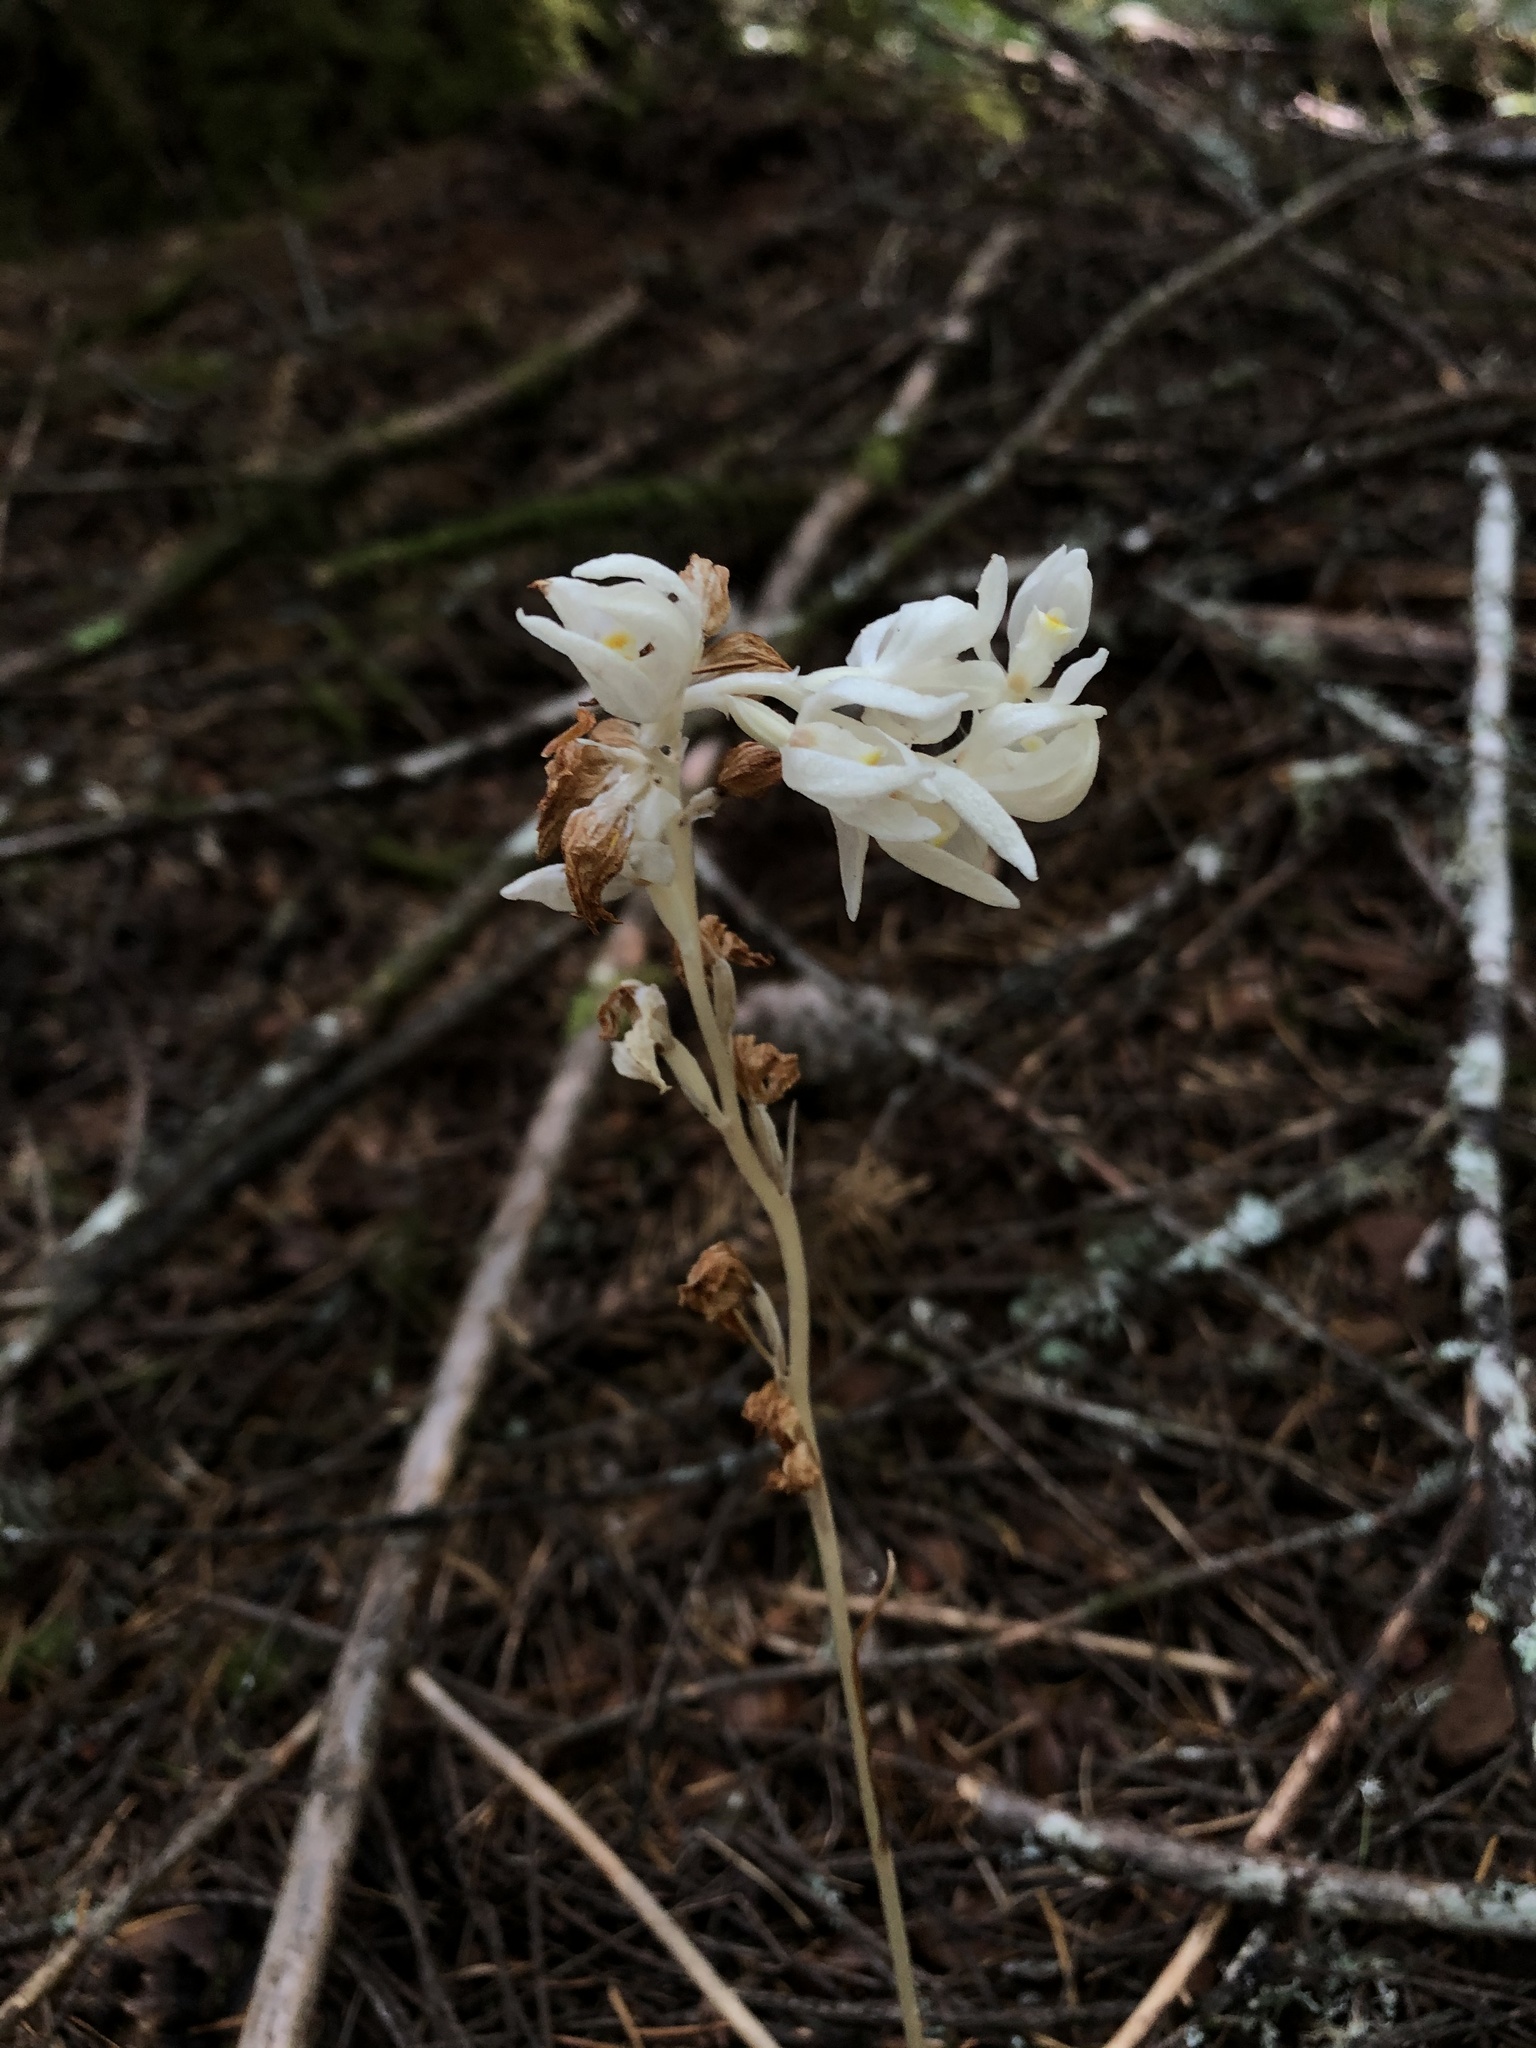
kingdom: Plantae
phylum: Tracheophyta
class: Liliopsida
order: Asparagales
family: Orchidaceae
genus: Cephalanthera
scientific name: Cephalanthera austiniae
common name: Phantom orchid
